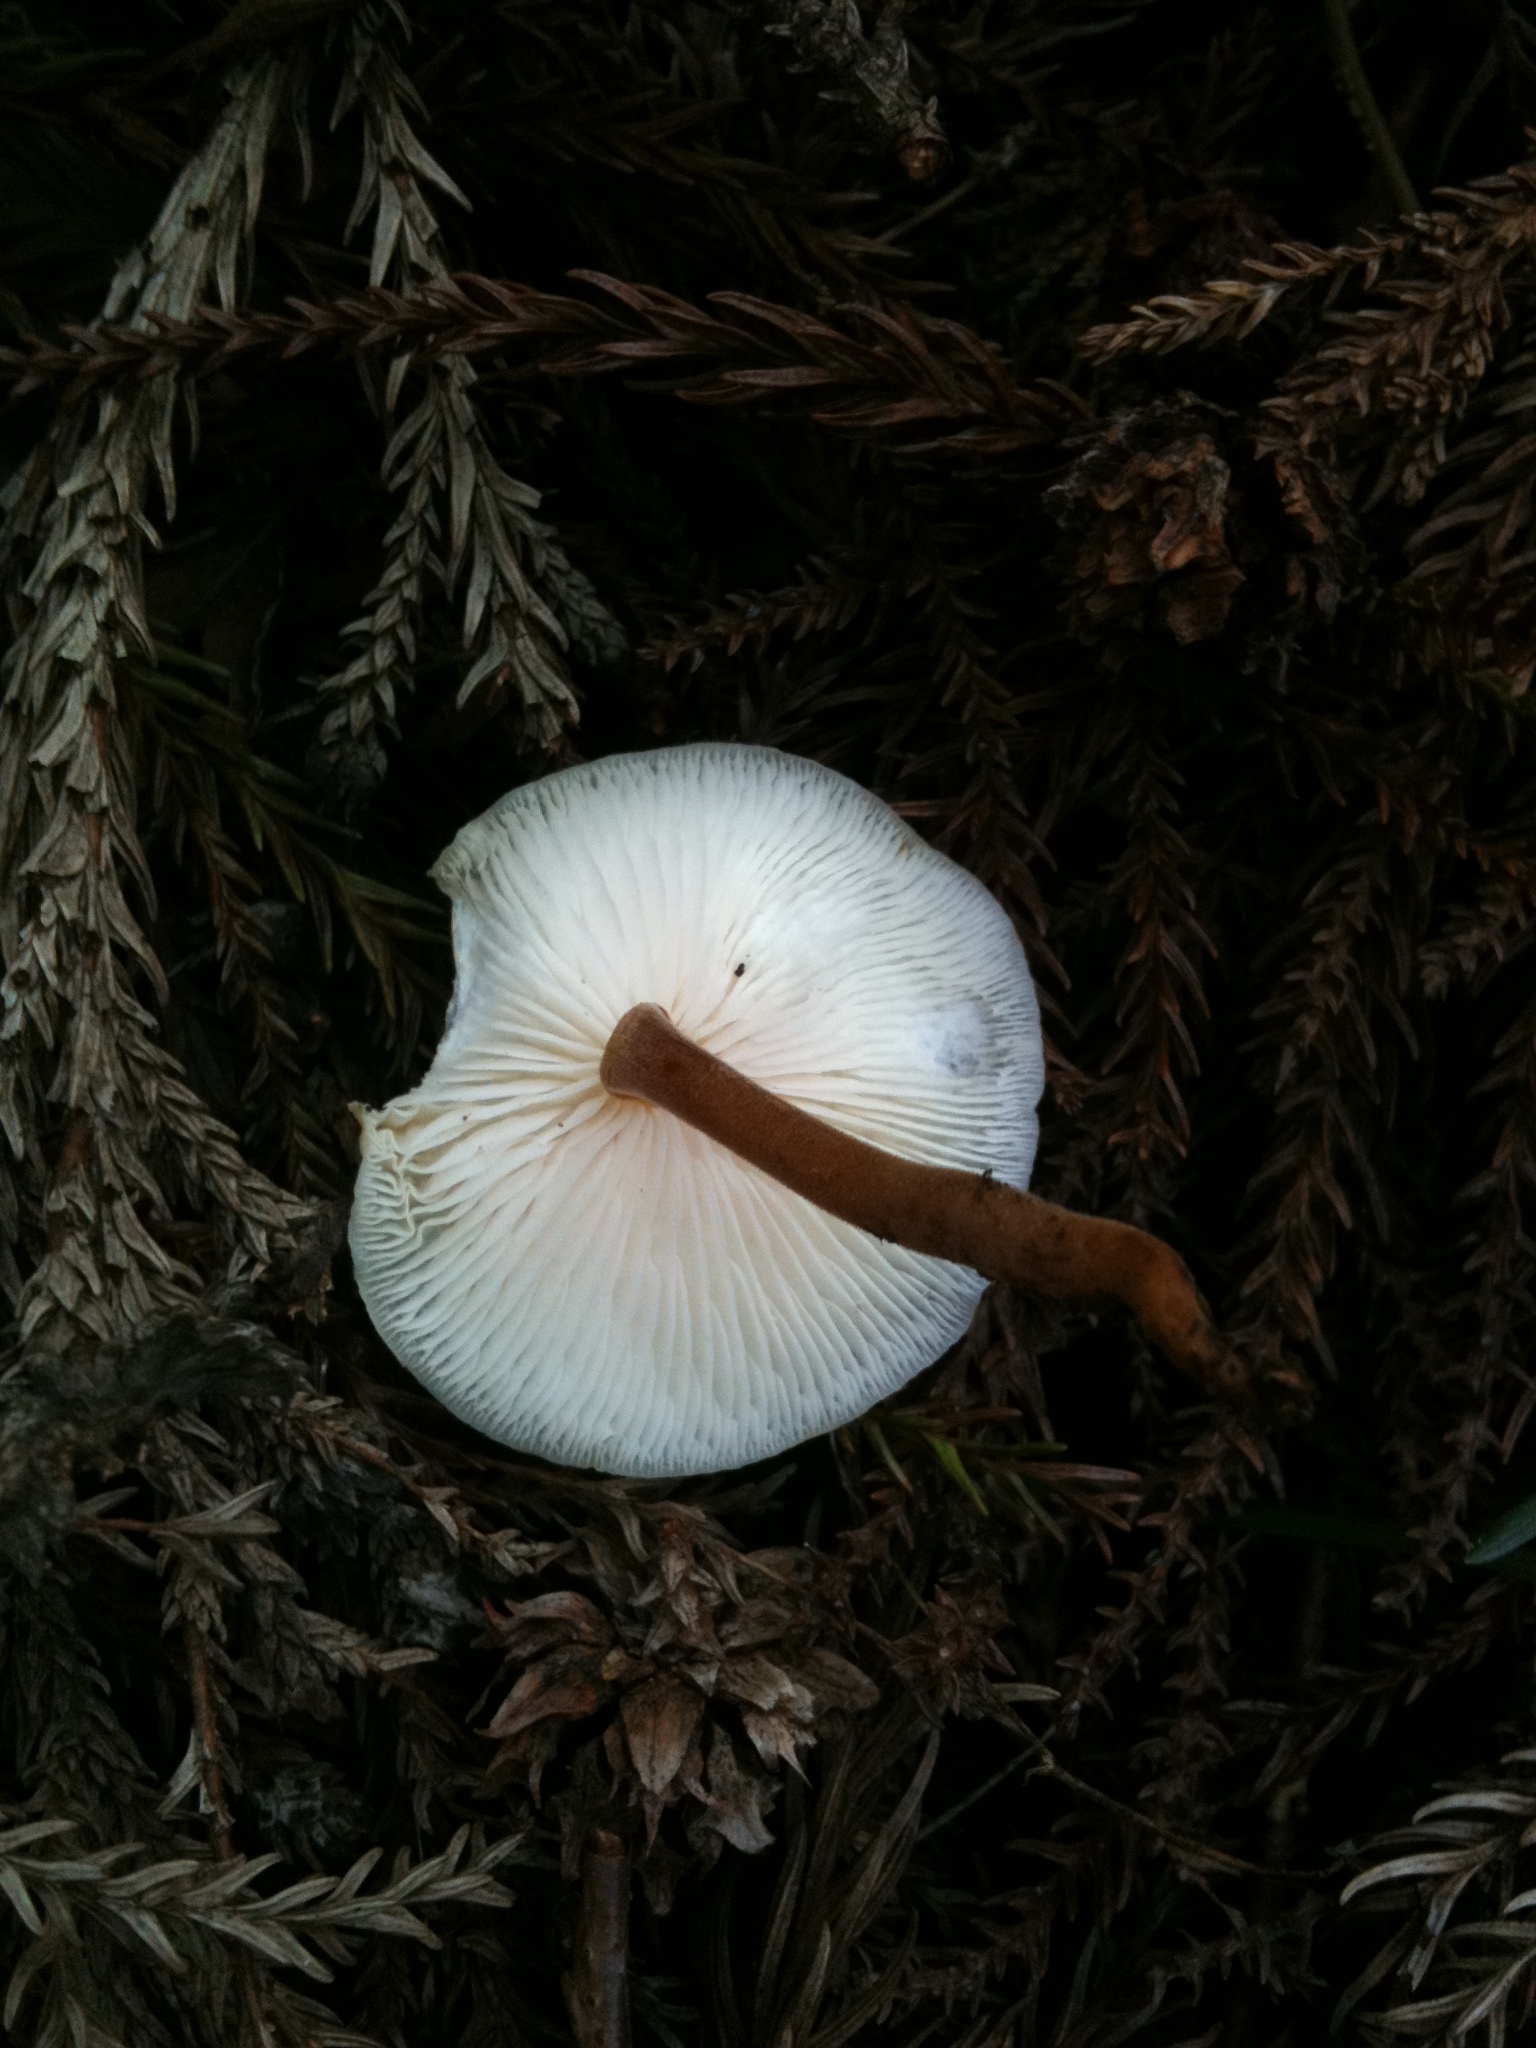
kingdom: Fungi
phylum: Basidiomycota
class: Agaricomycetes
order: Agaricales
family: Physalacriaceae
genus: Strobilurus
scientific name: Strobilurus ohshimae
